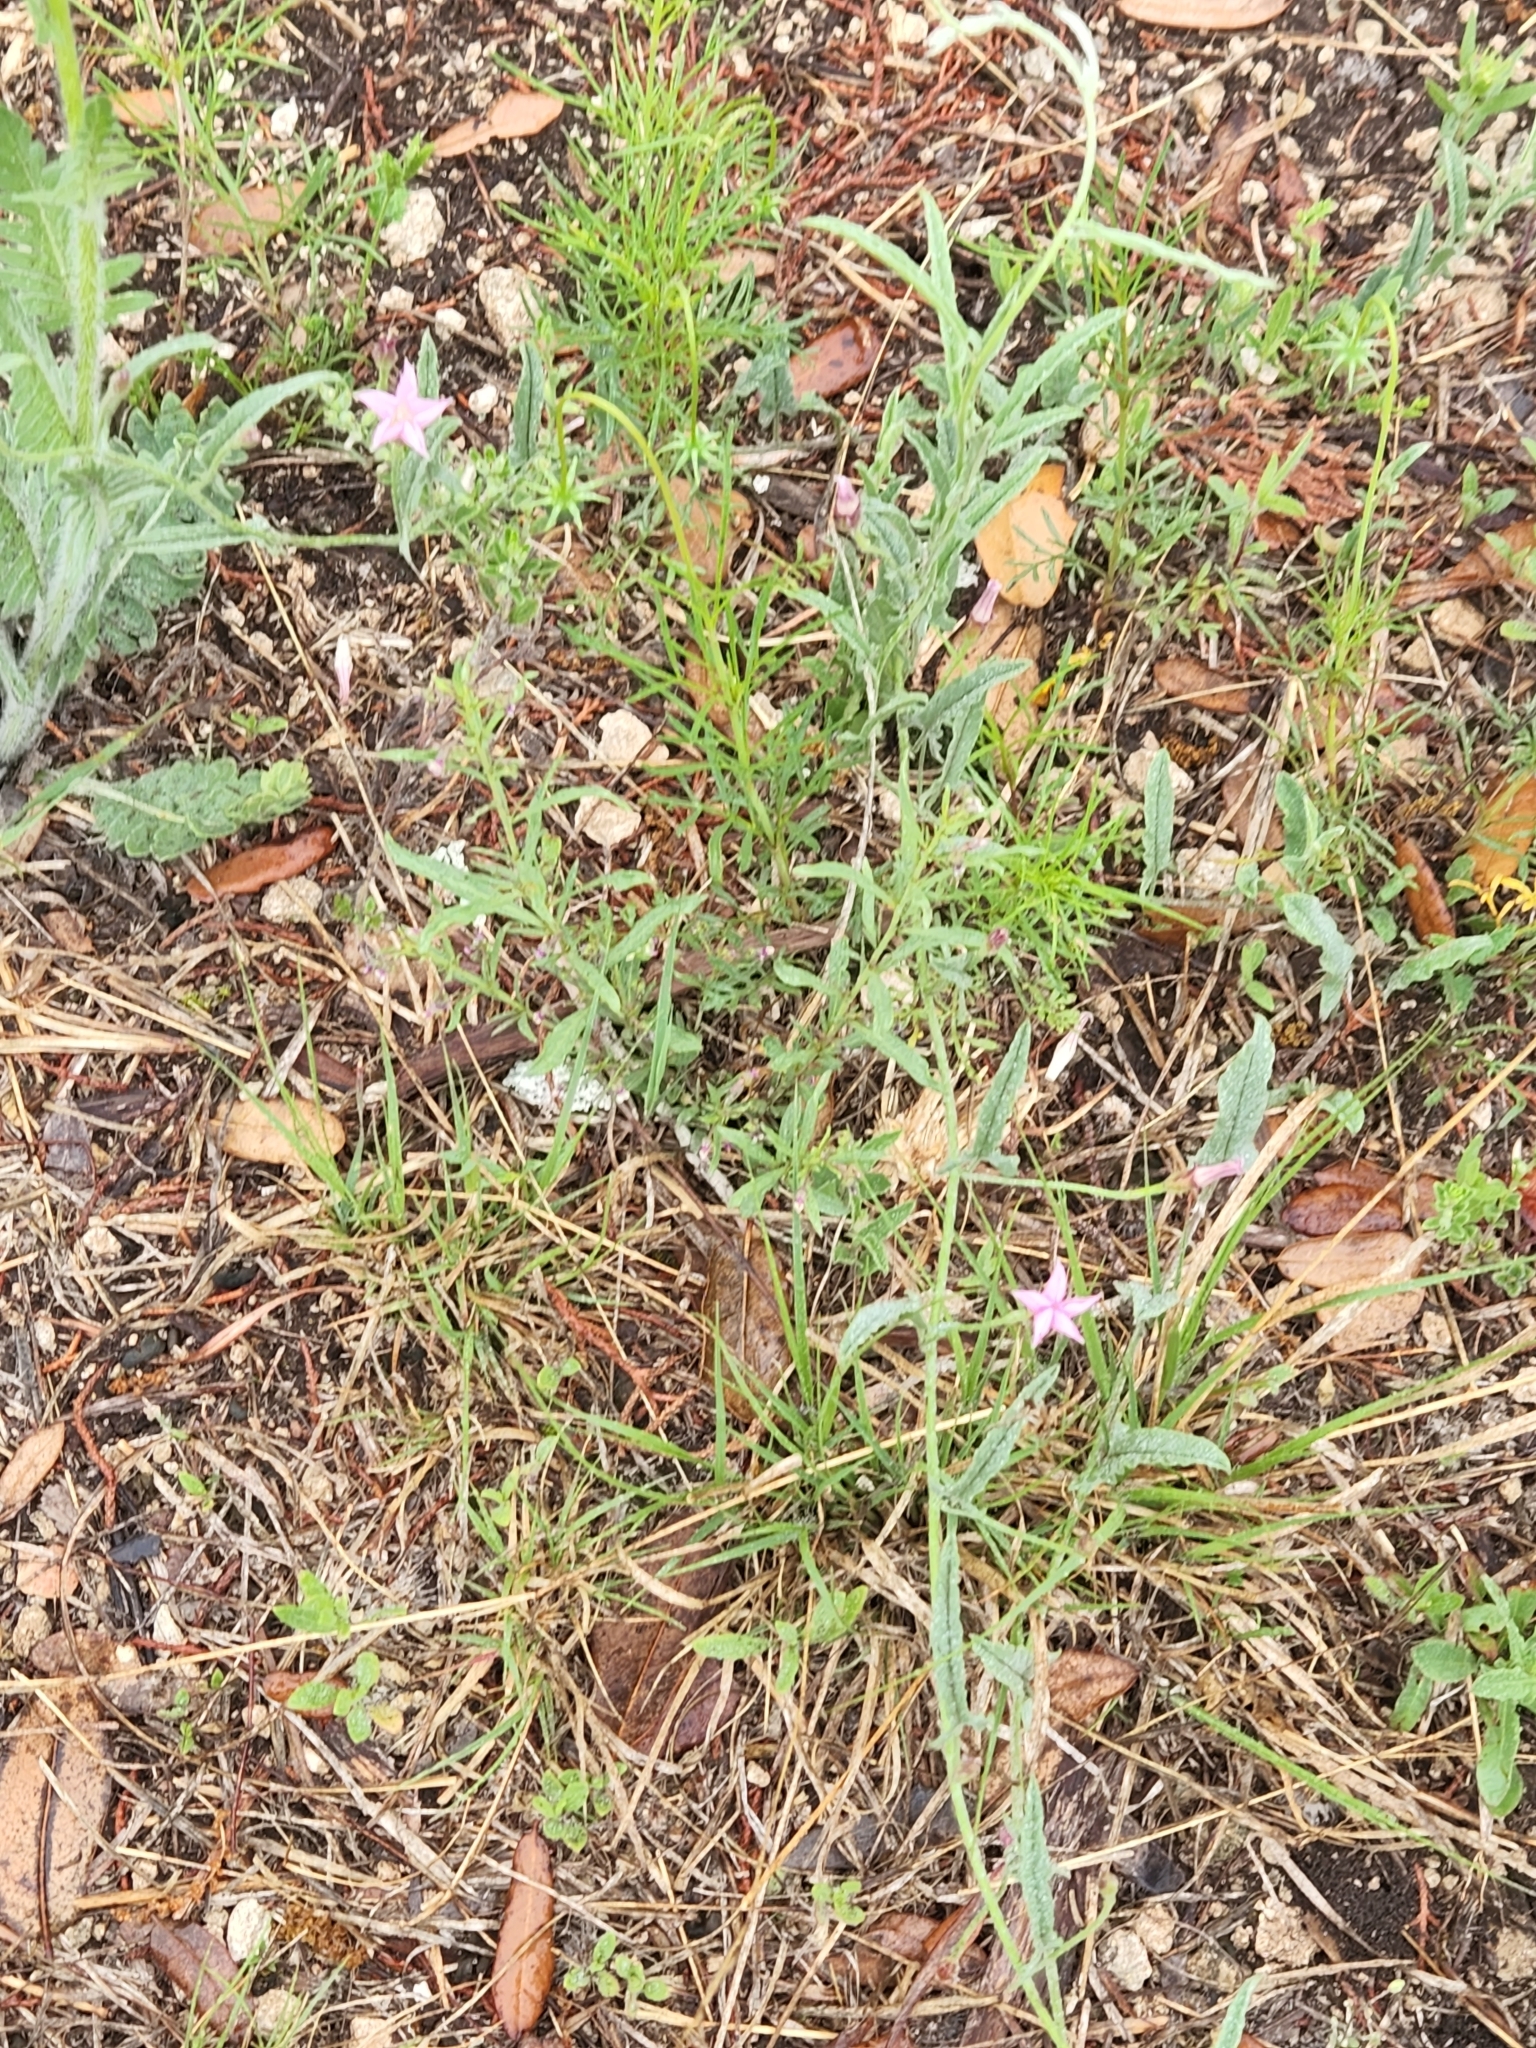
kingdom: Plantae
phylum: Tracheophyta
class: Magnoliopsida
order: Solanales
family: Convolvulaceae
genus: Convolvulus
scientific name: Convolvulus equitans
